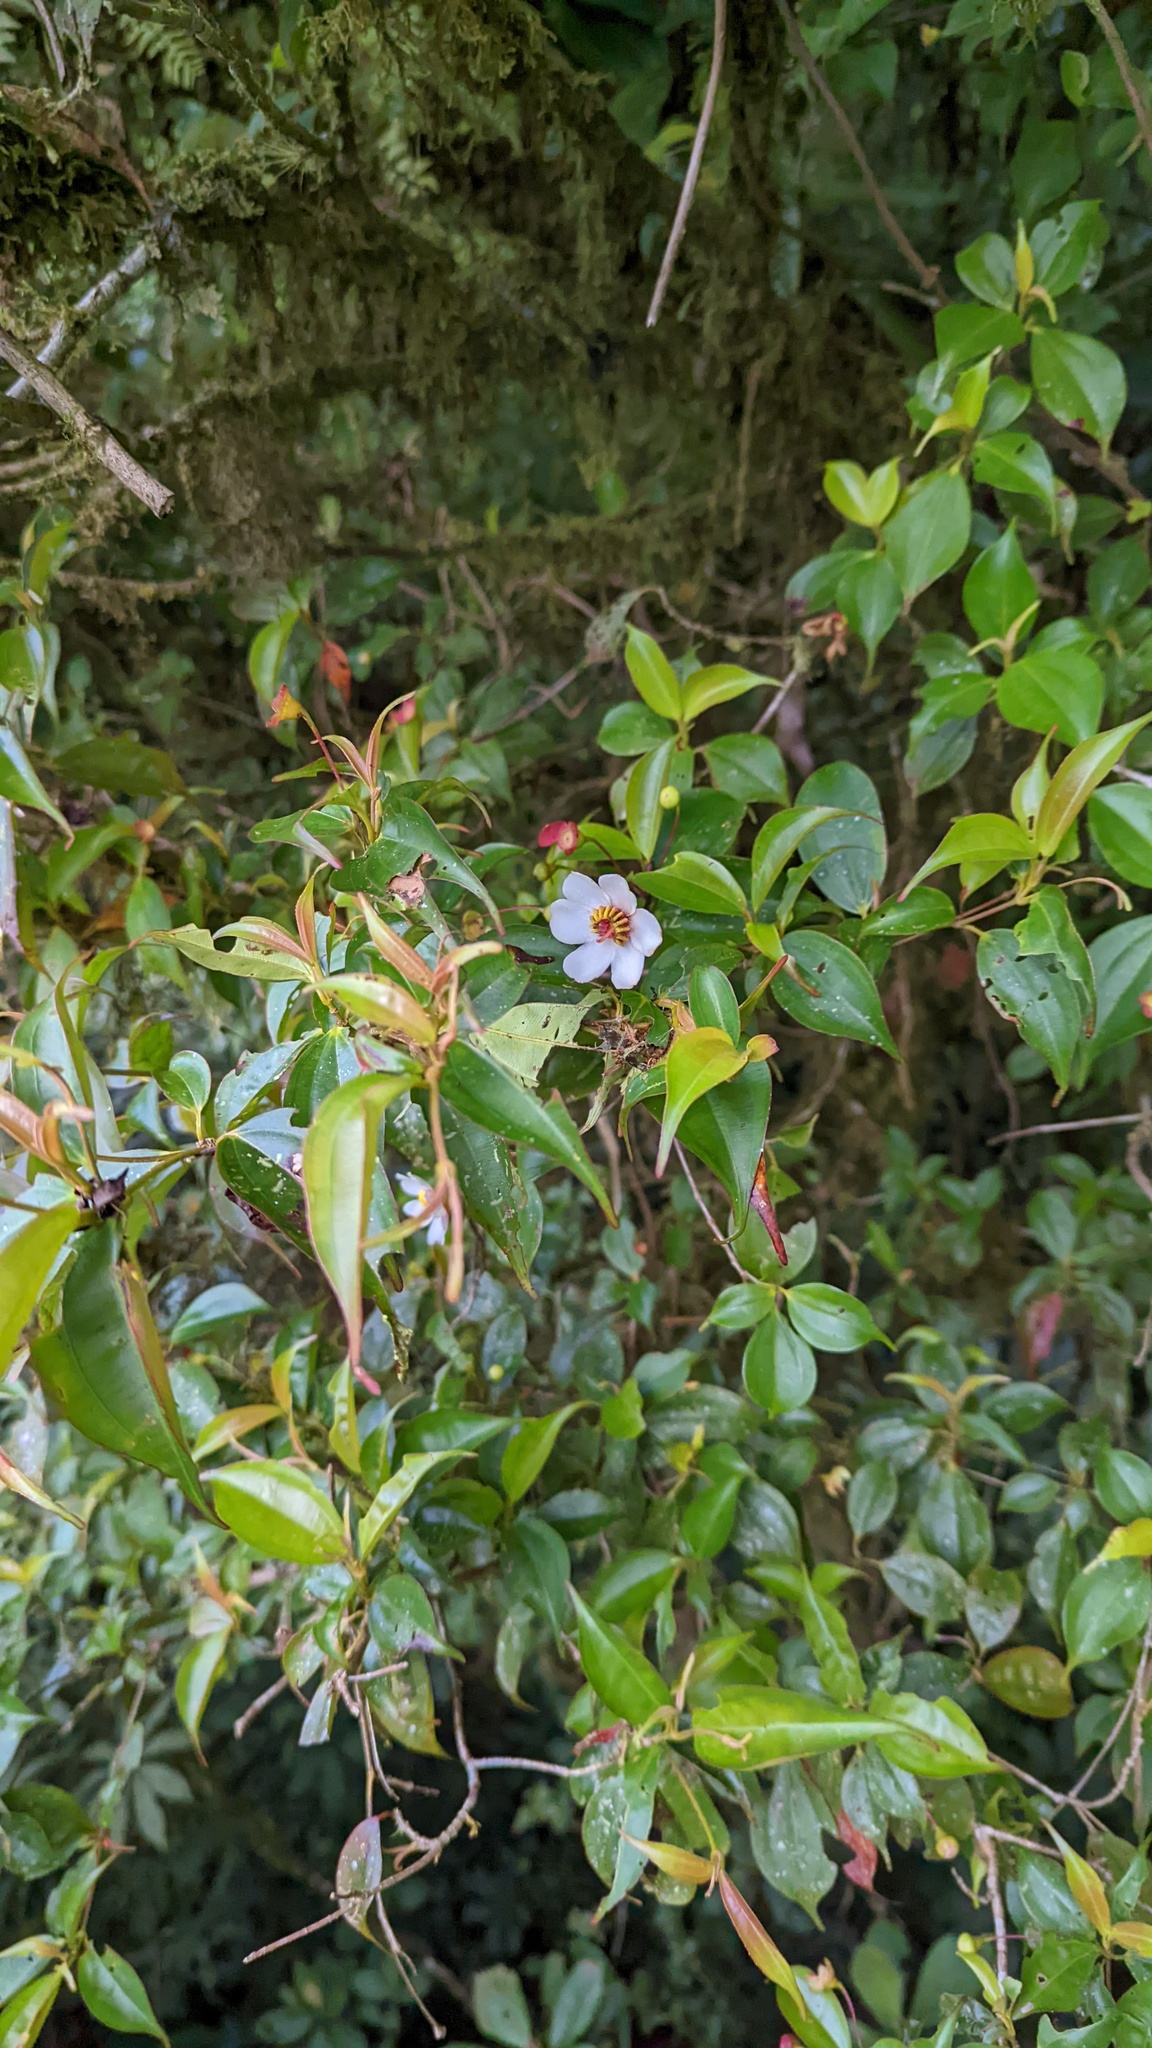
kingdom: Plantae
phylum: Tracheophyta
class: Magnoliopsida
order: Myrtales
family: Melastomataceae
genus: Blakea
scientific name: Blakea anomala
